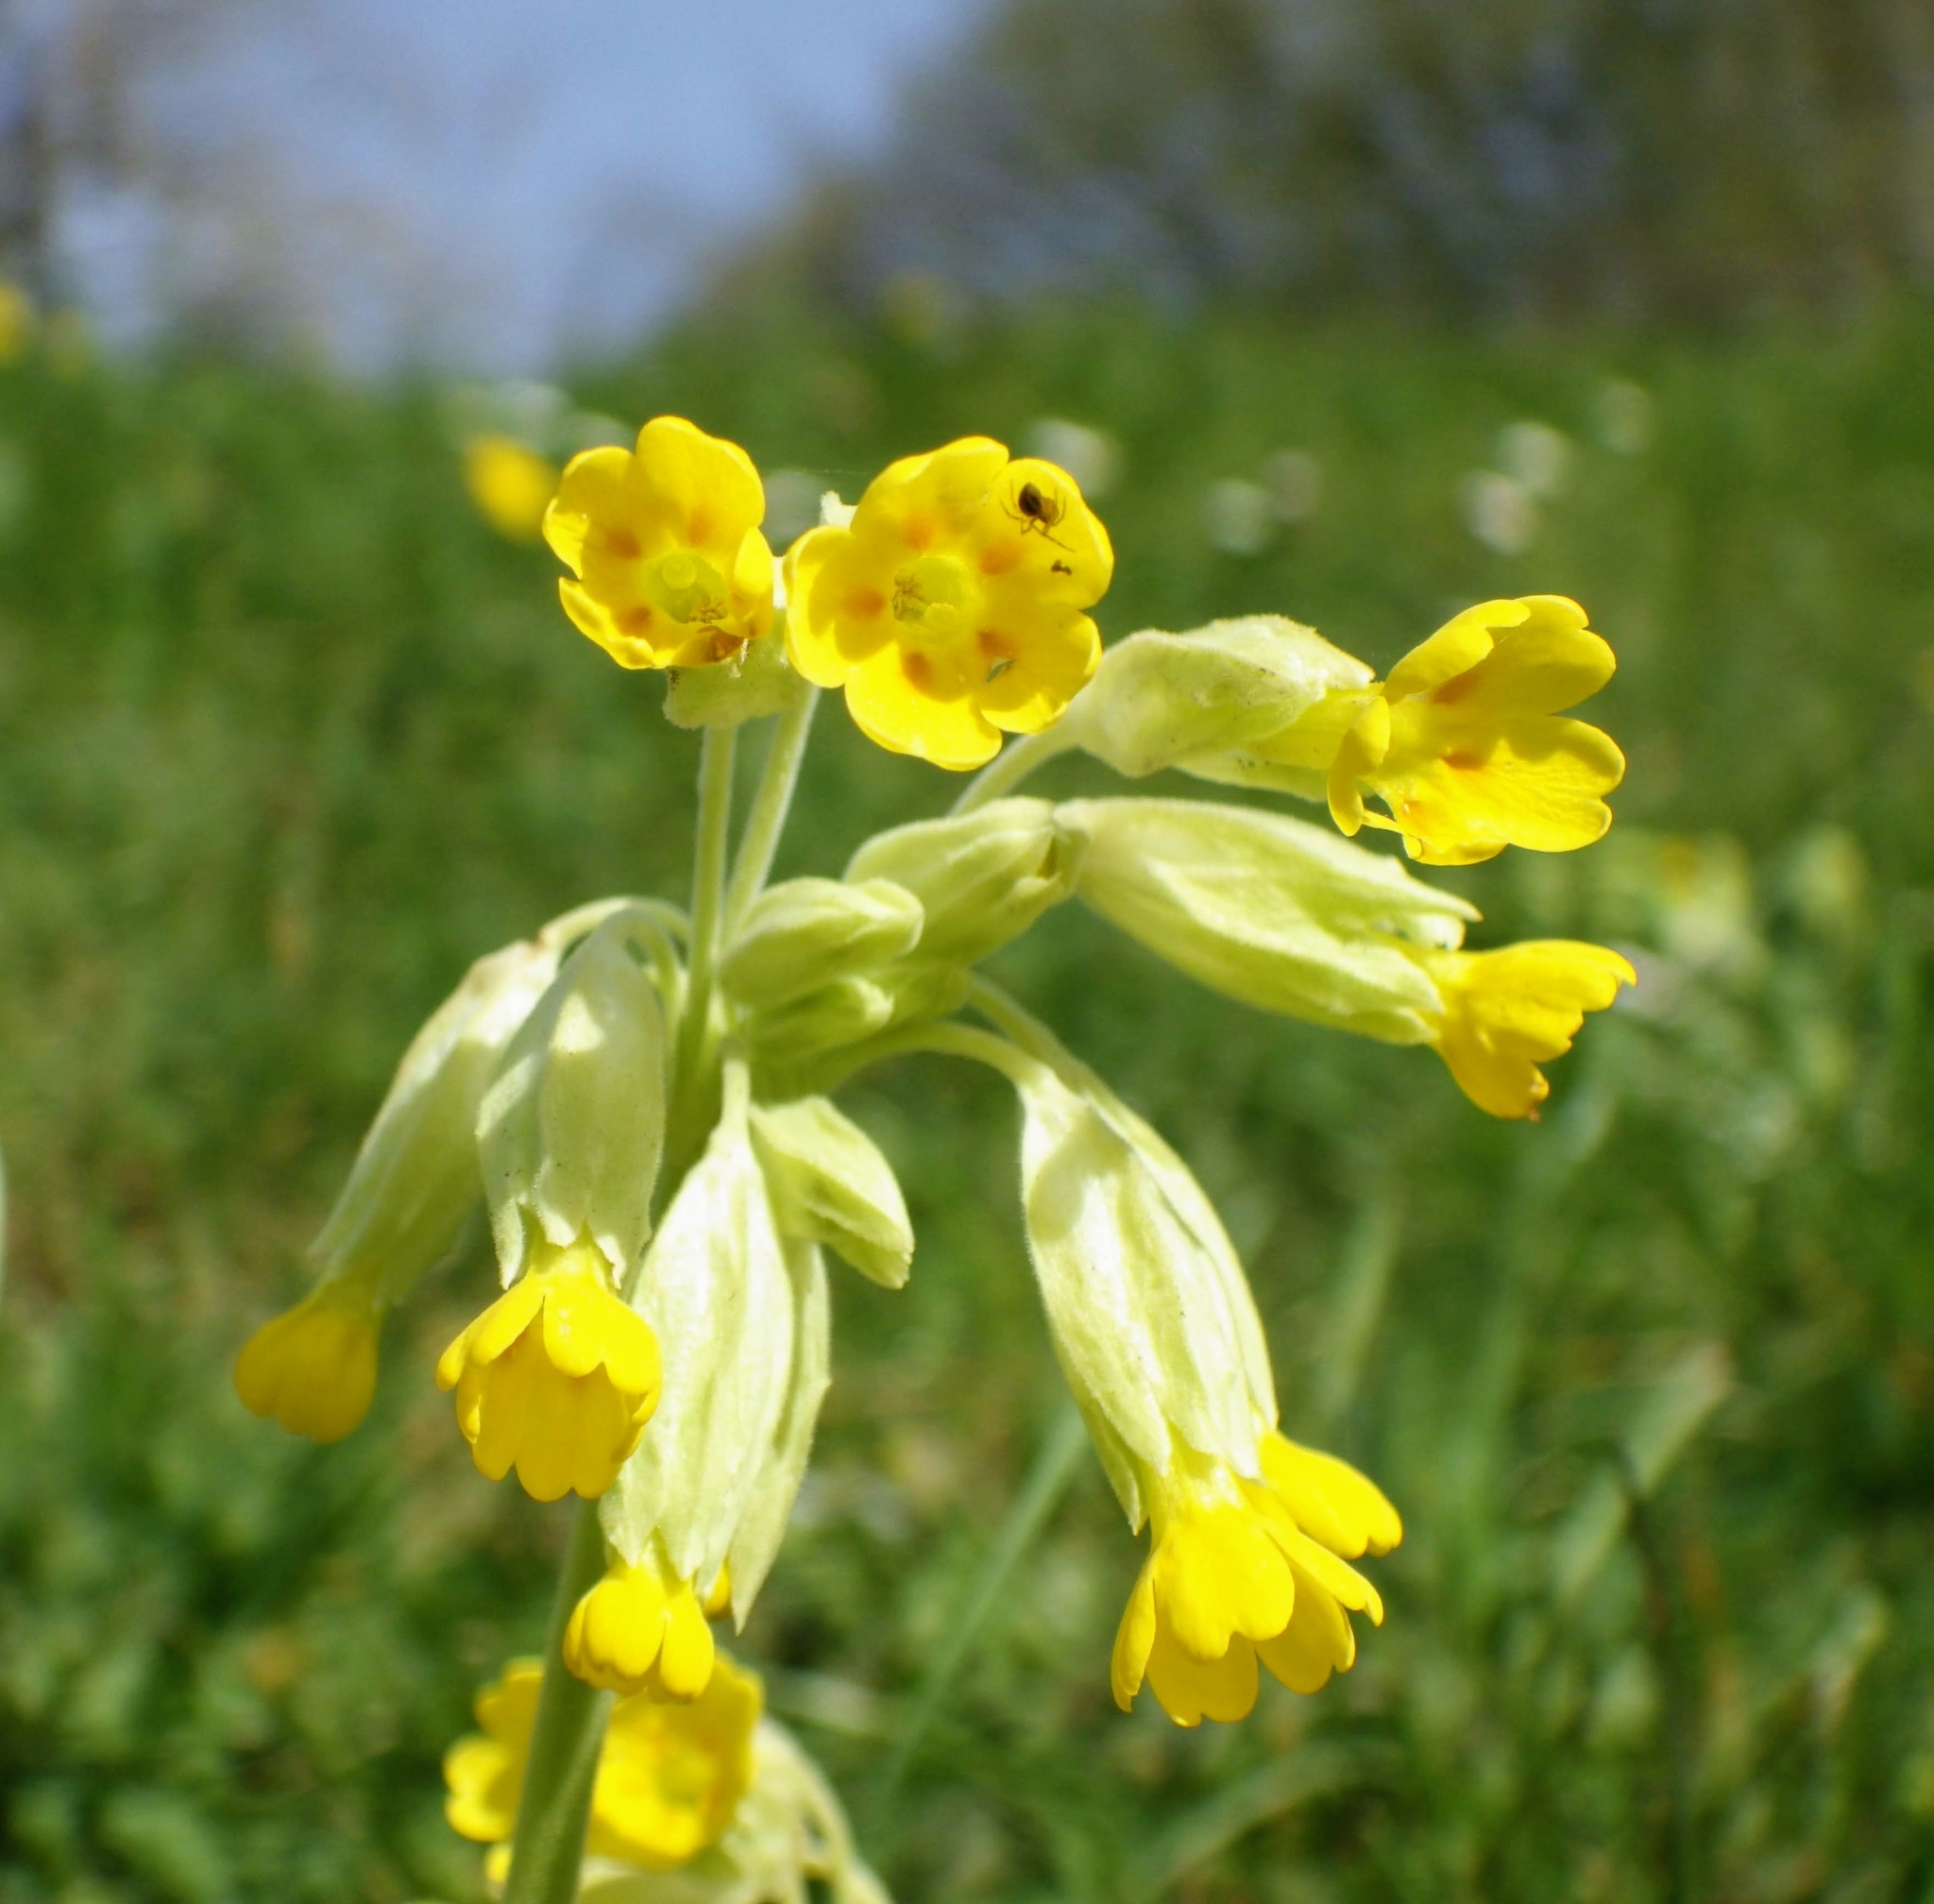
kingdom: Plantae
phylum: Tracheophyta
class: Magnoliopsida
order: Ericales
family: Primulaceae
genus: Primula
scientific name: Primula veris
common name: Cowslip
